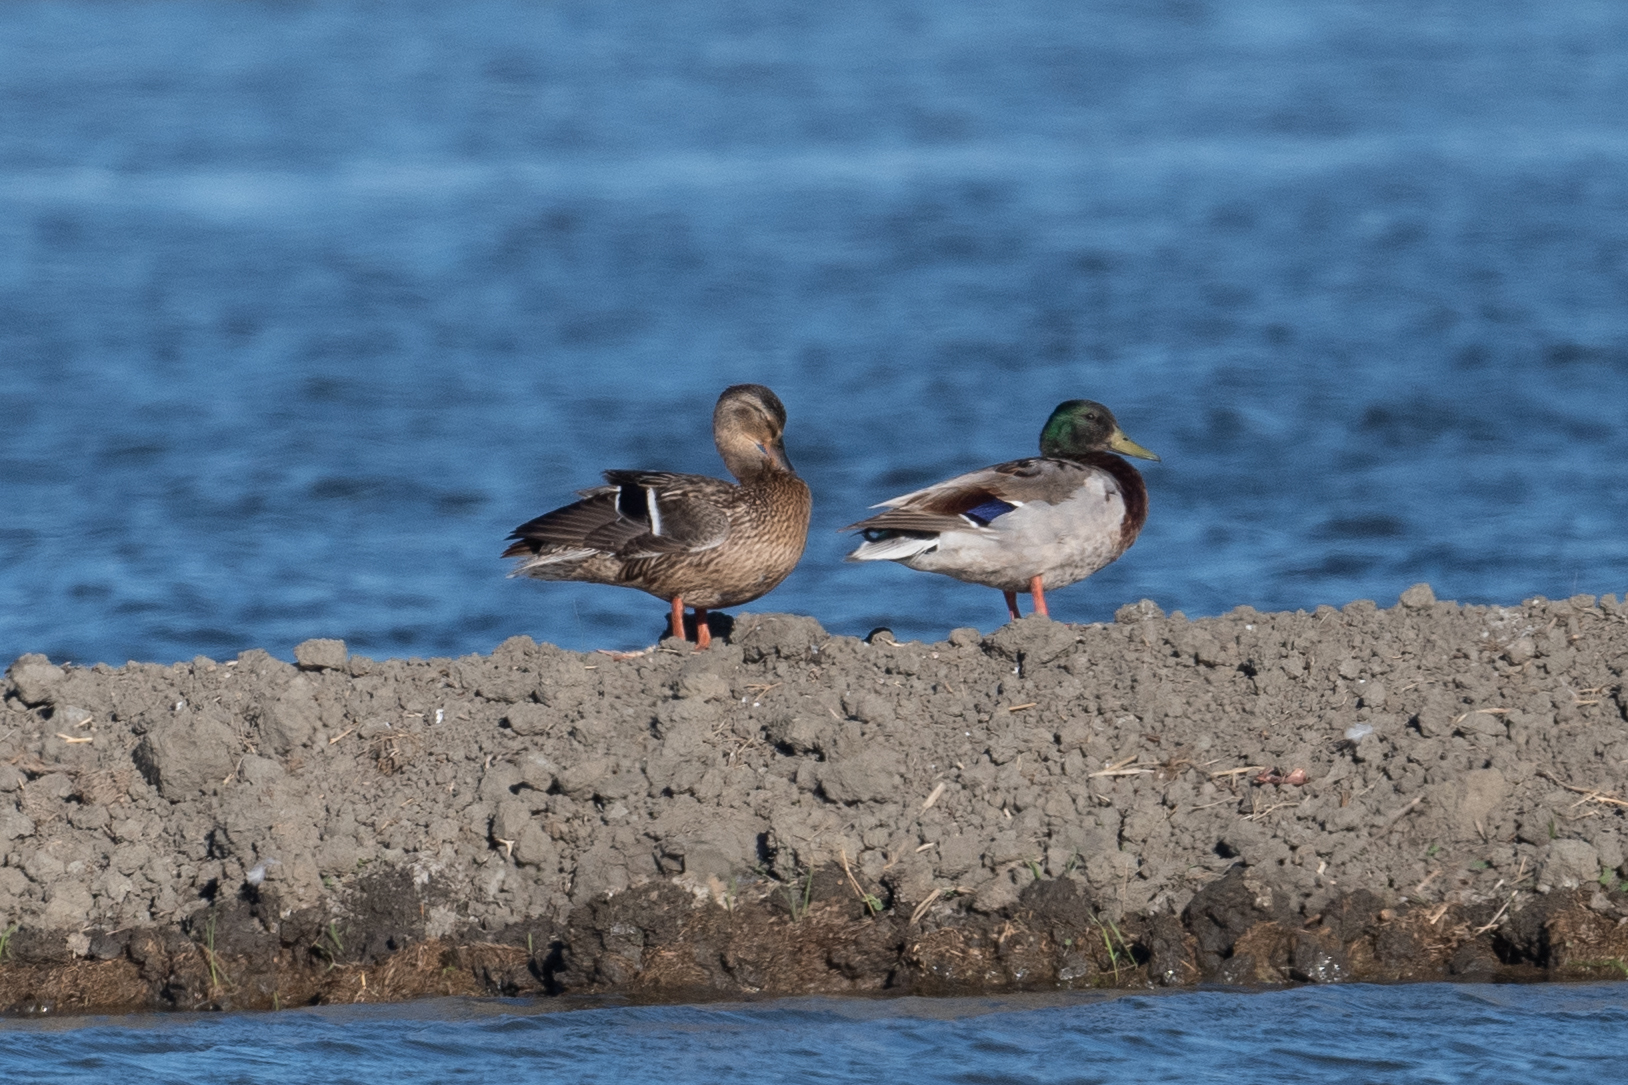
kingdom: Animalia
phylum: Chordata
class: Aves
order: Anseriformes
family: Anatidae
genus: Anas
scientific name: Anas platyrhynchos
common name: Mallard
